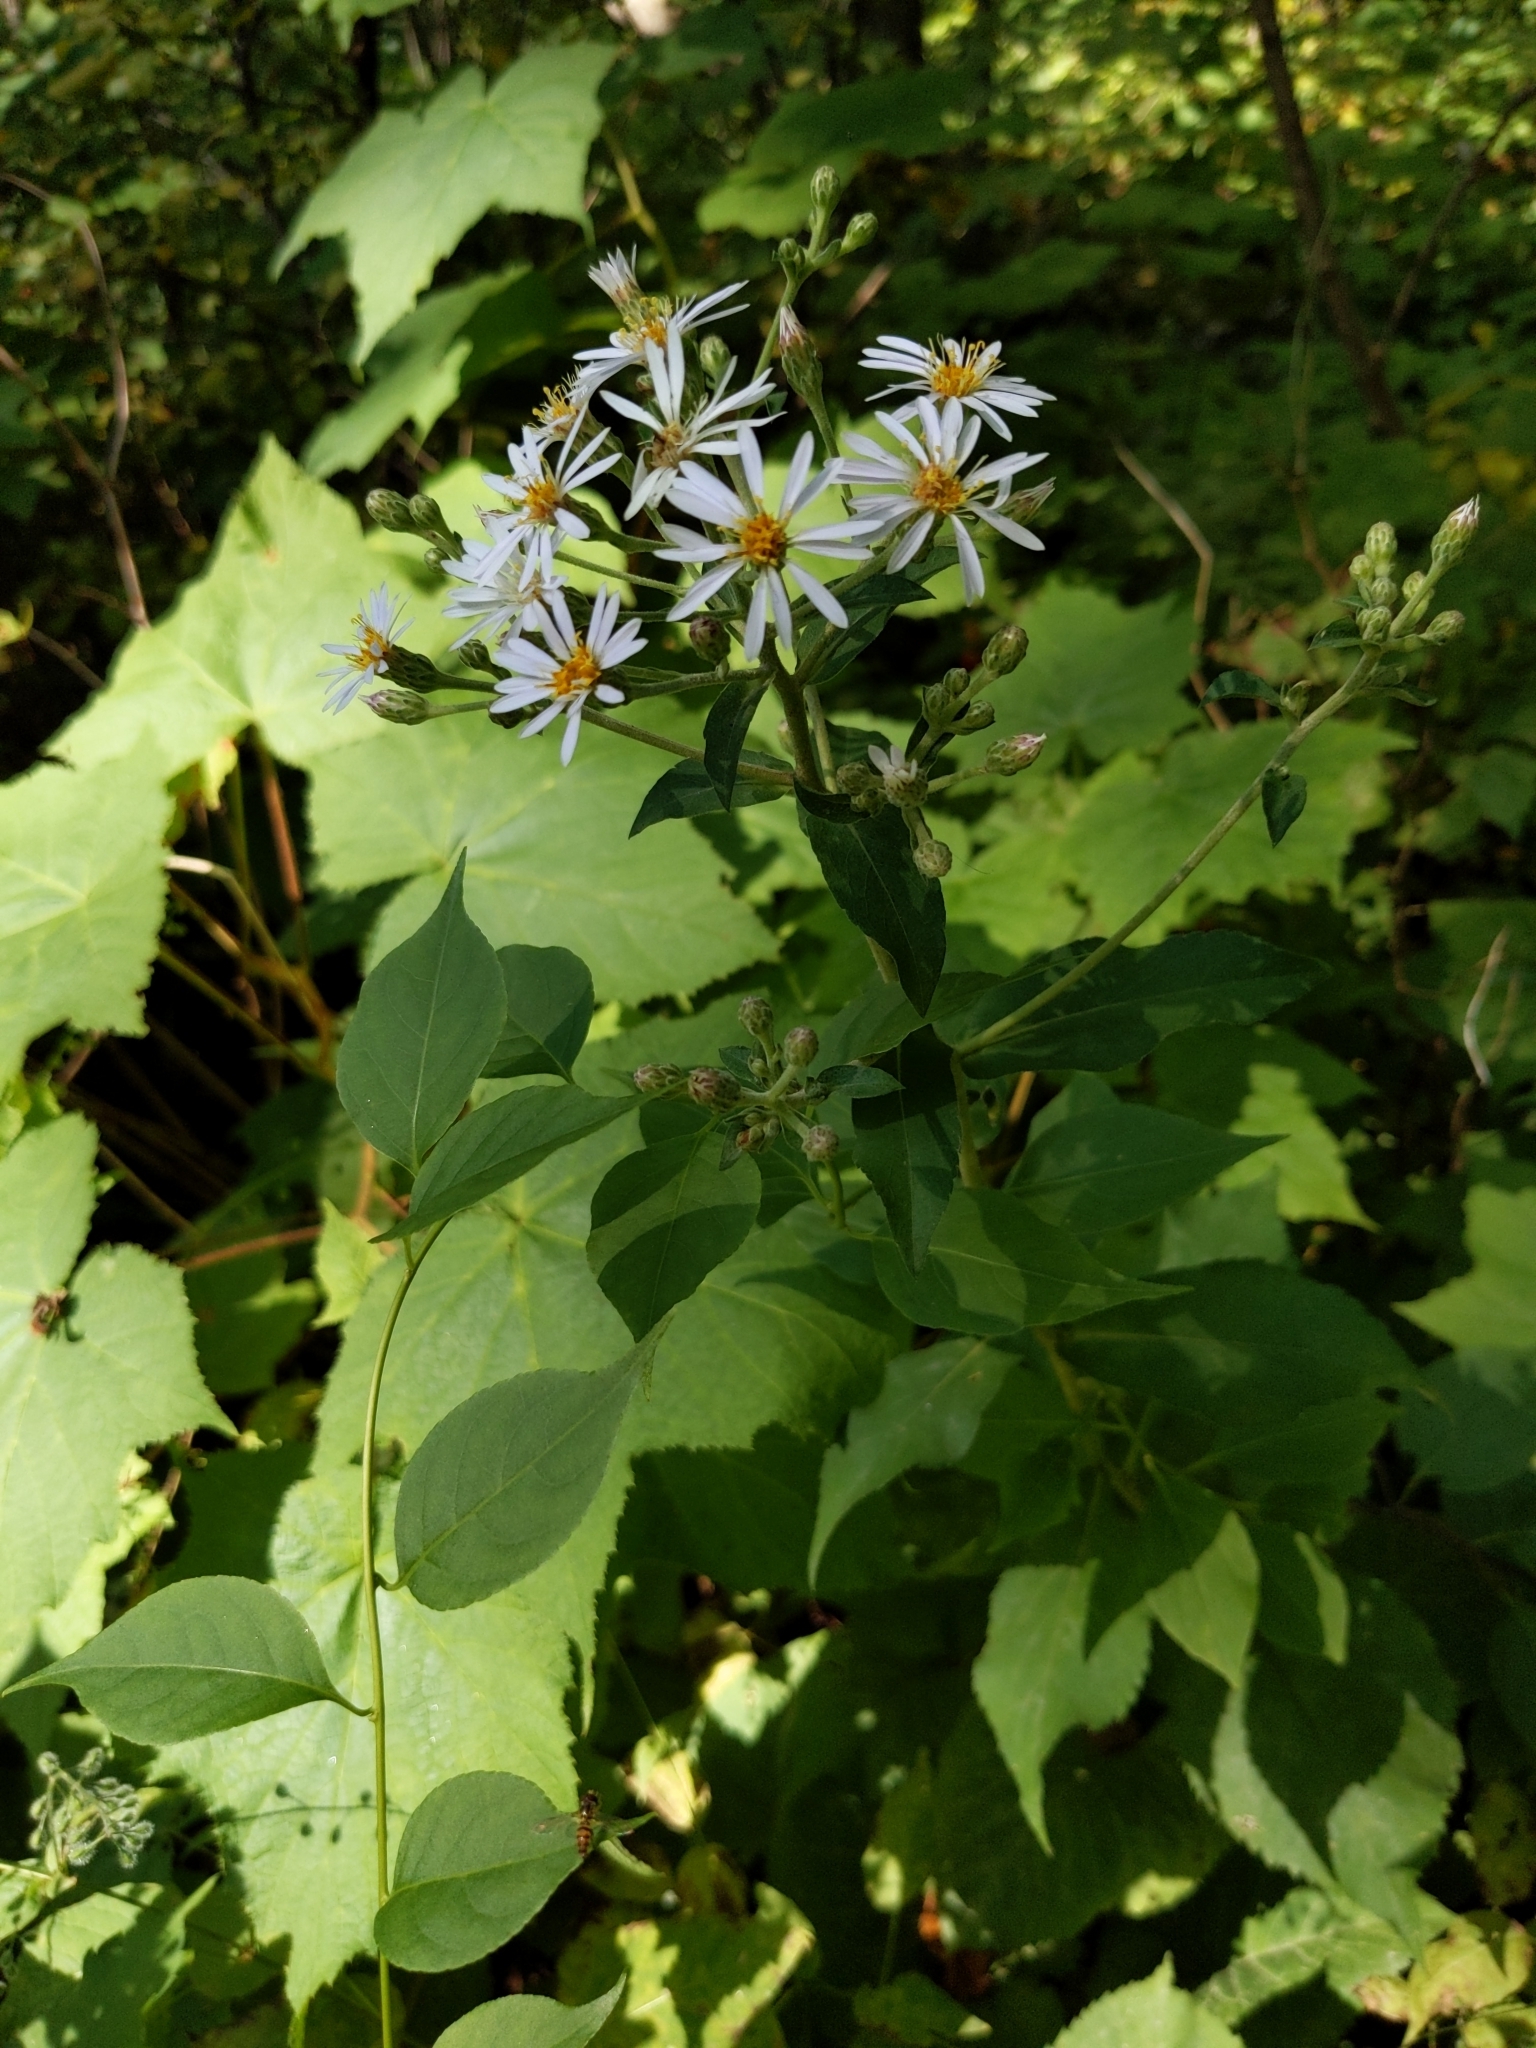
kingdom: Plantae
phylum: Tracheophyta
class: Magnoliopsida
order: Asterales
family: Asteraceae
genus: Eurybia
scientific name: Eurybia macrophylla
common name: Big-leaved aster
